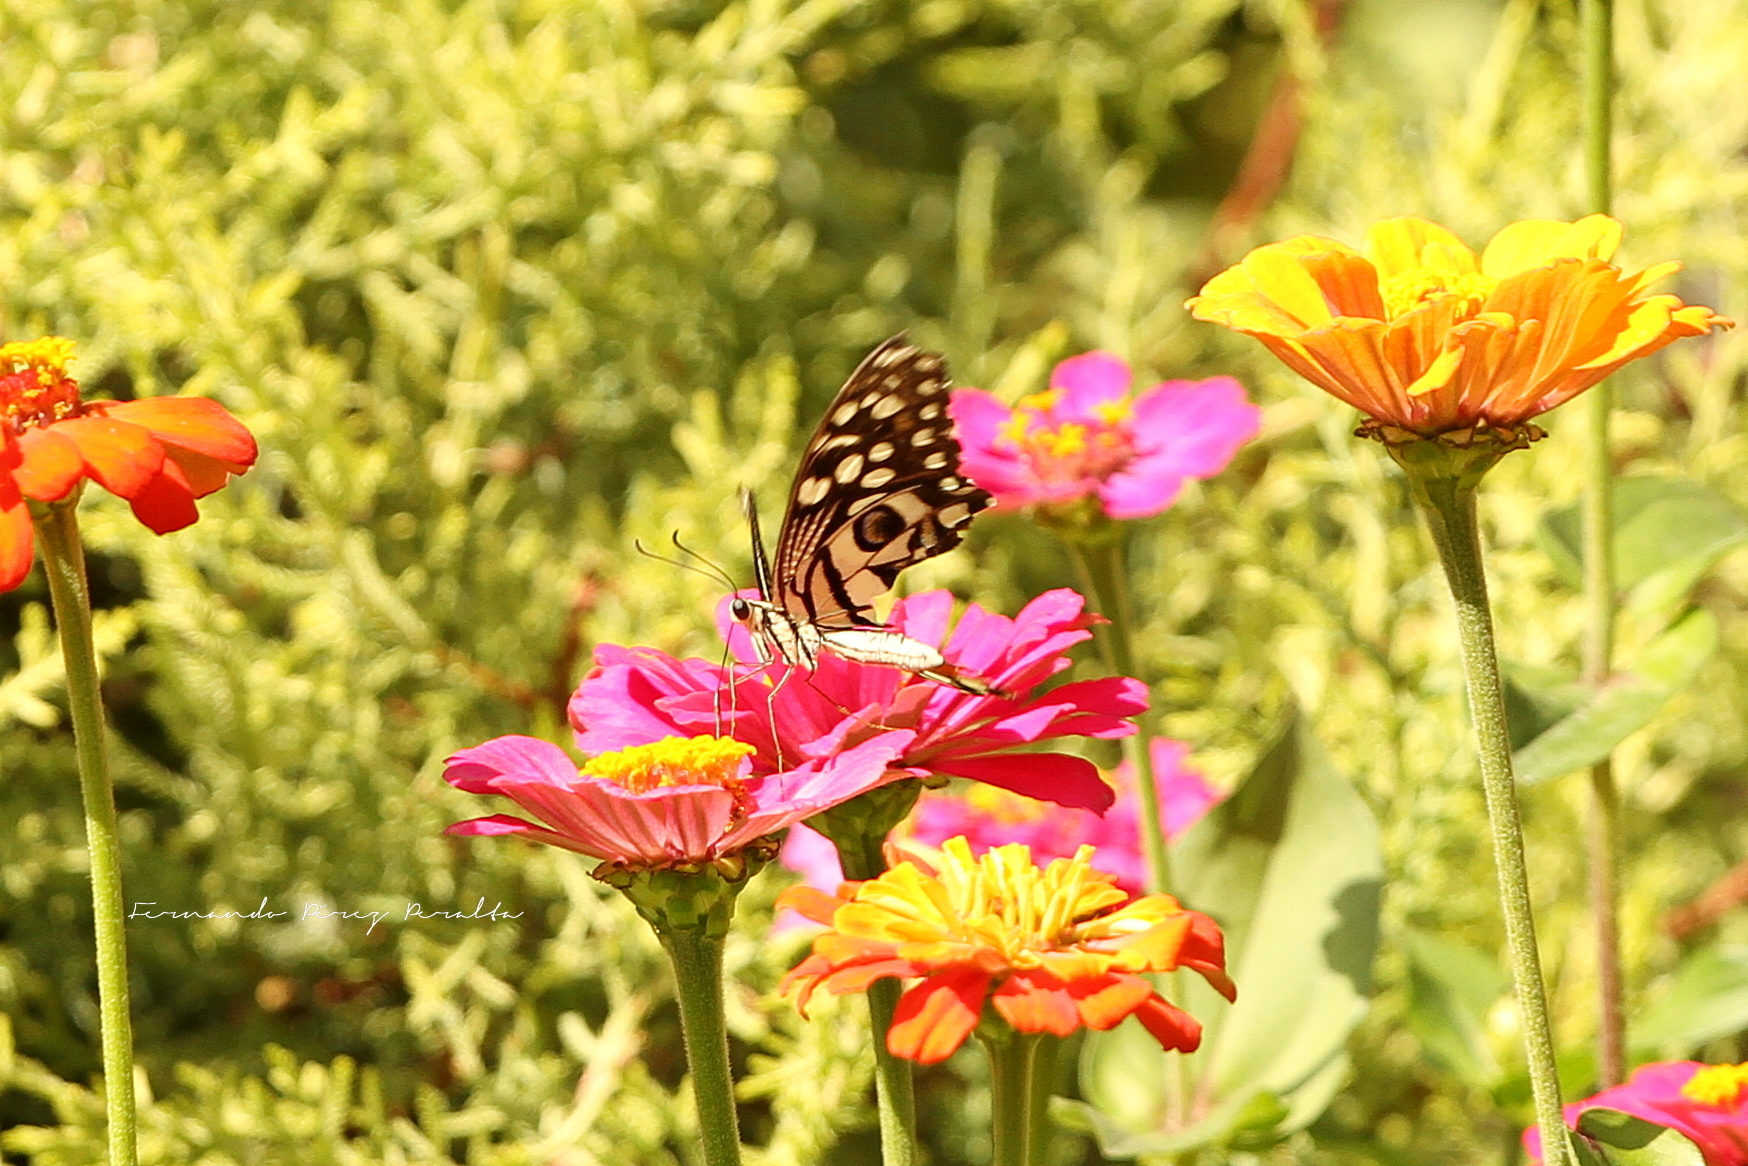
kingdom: Animalia
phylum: Arthropoda
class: Insecta
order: Lepidoptera
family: Papilionidae
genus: Papilio
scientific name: Papilio demoleus
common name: Lime butterfly
